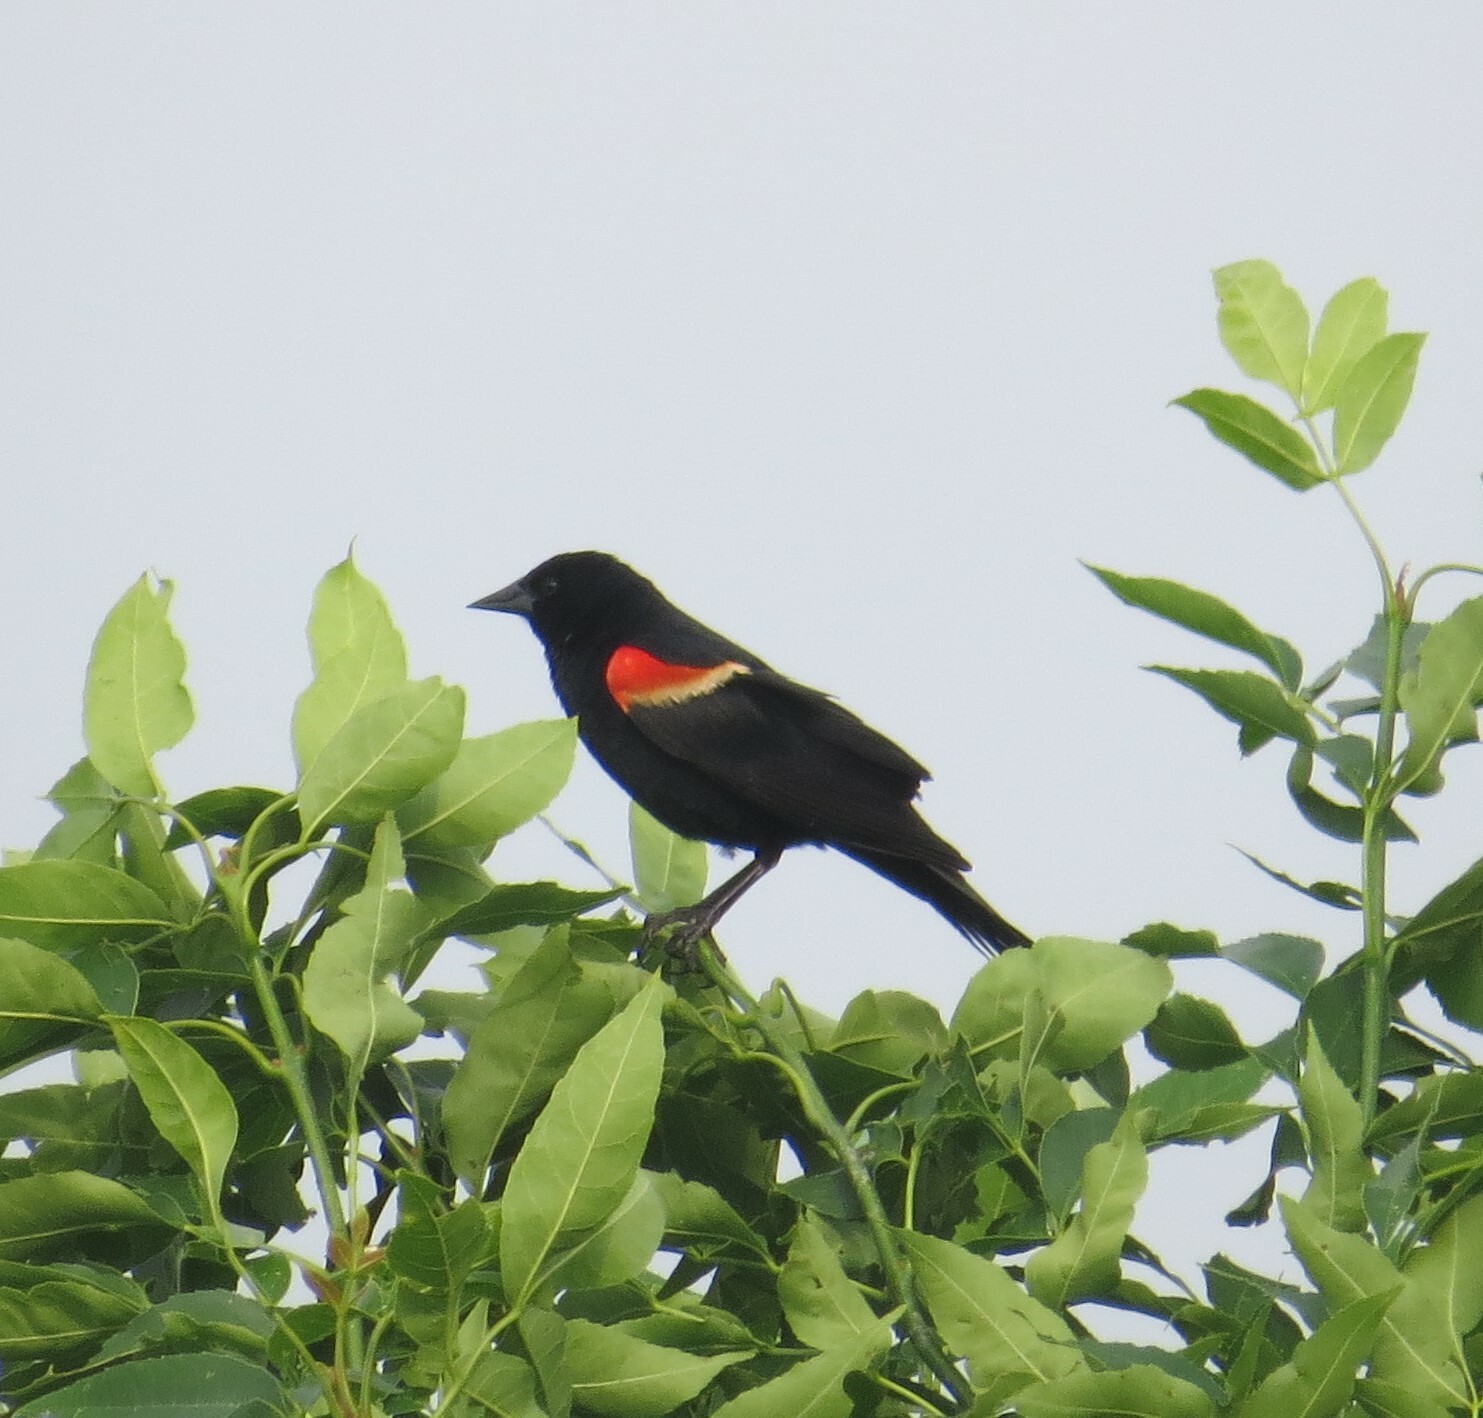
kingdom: Animalia
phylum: Chordata
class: Aves
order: Passeriformes
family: Icteridae
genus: Agelaius
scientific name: Agelaius phoeniceus
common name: Red-winged blackbird
